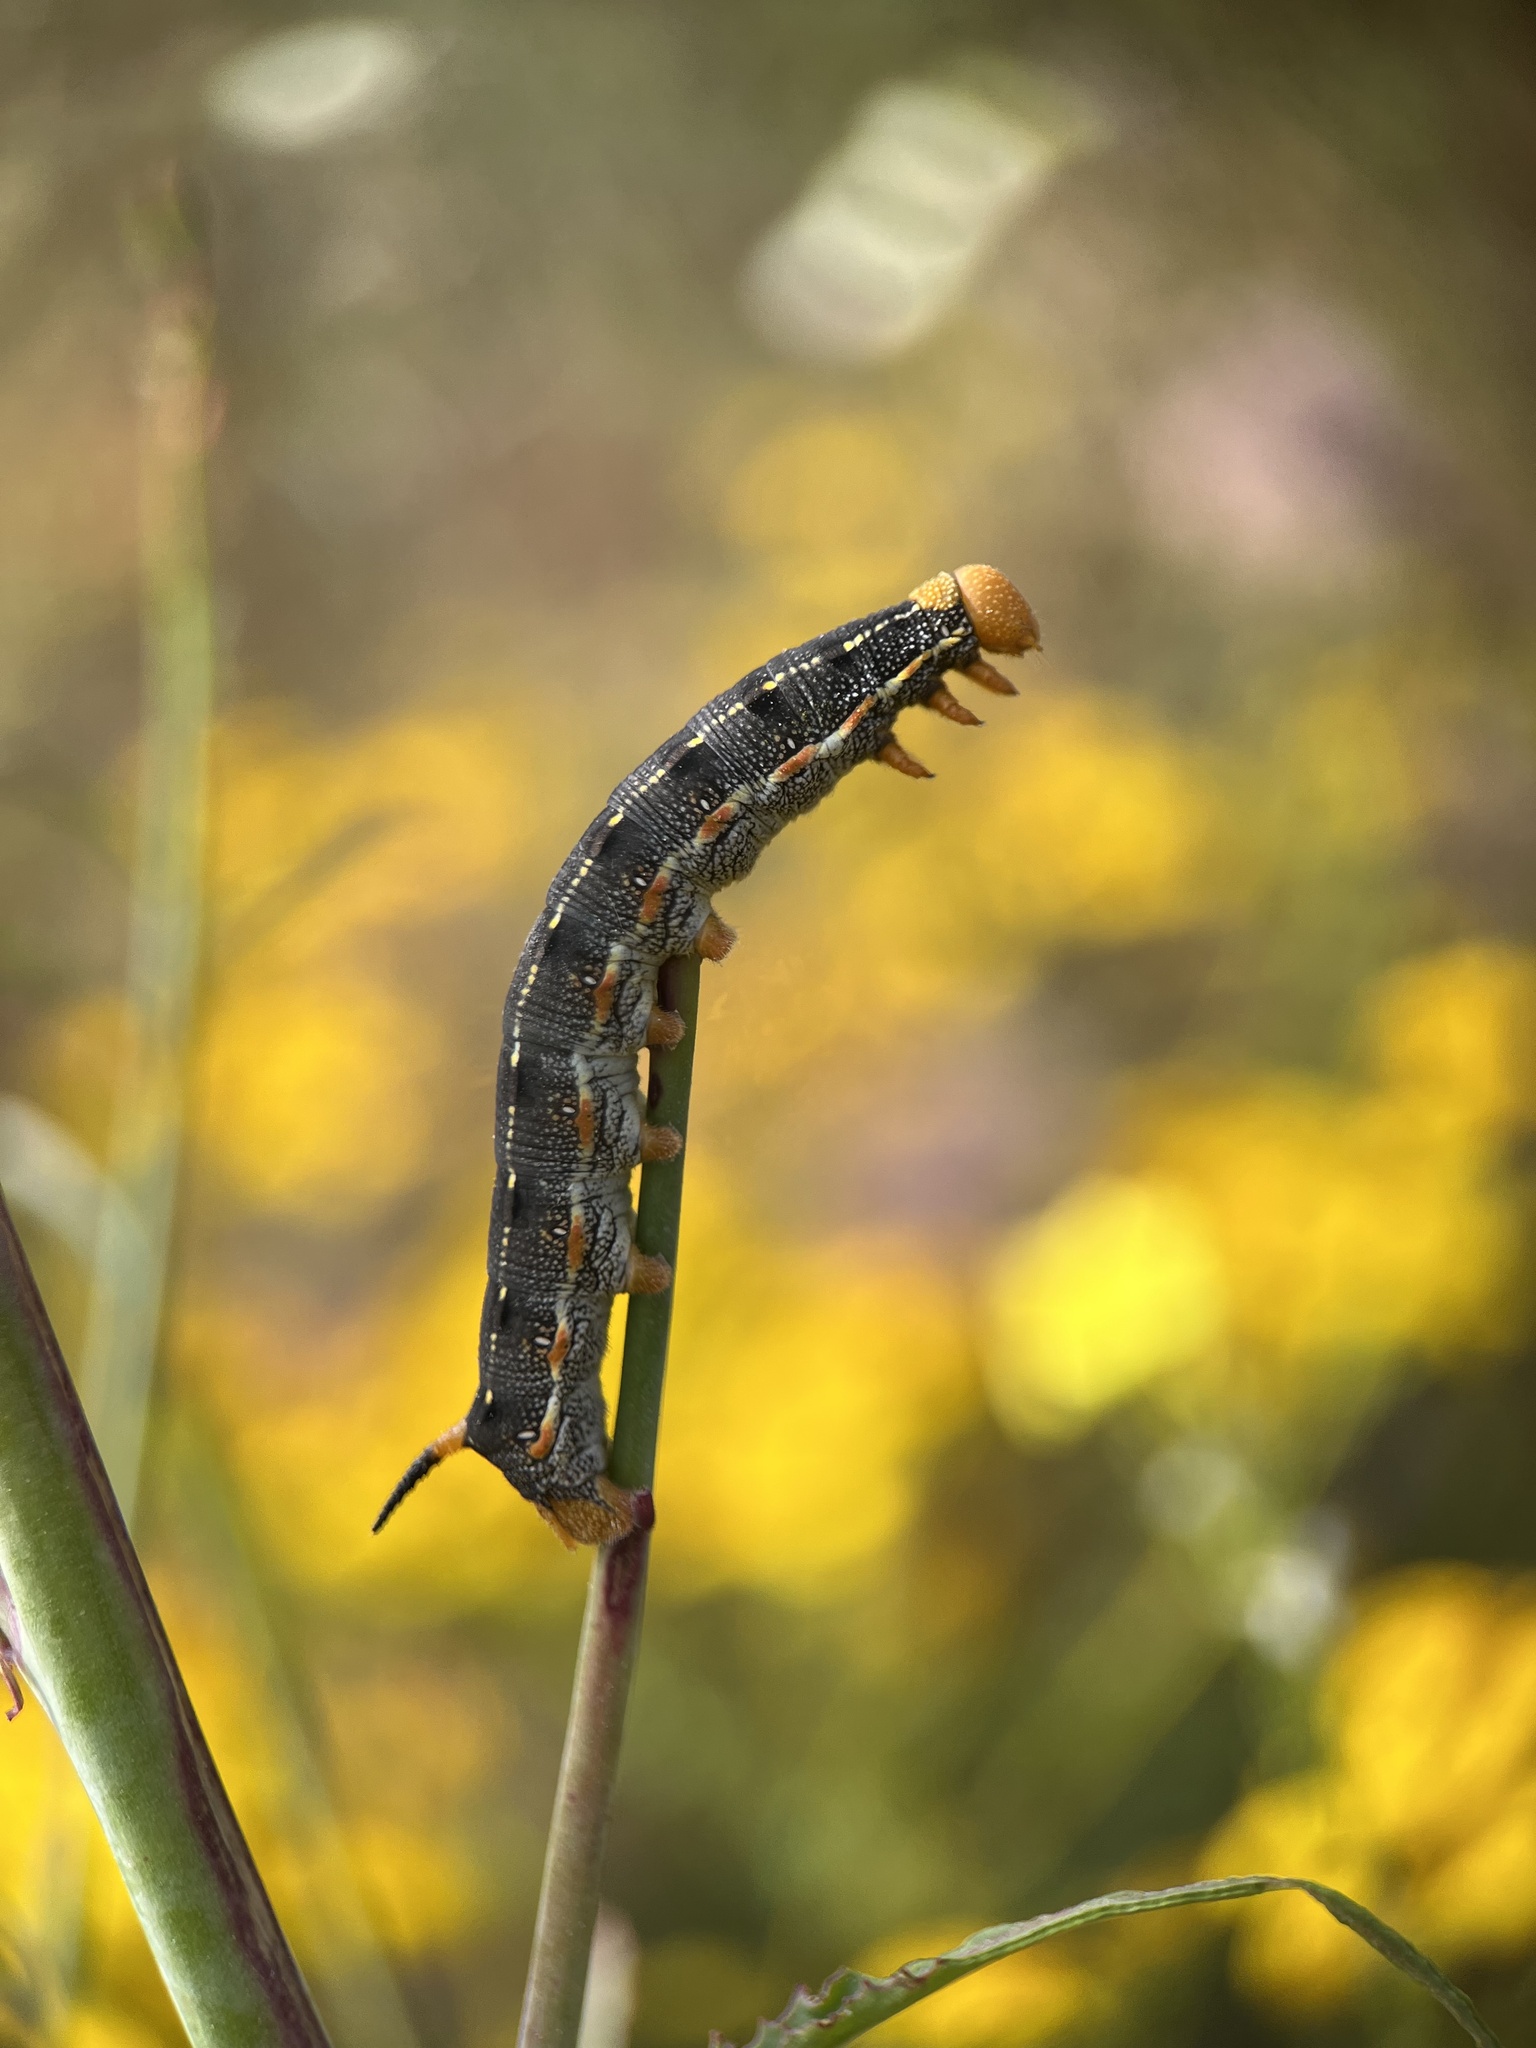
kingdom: Animalia
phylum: Arthropoda
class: Insecta
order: Lepidoptera
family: Sphingidae
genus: Hyles
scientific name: Hyles lineata
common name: White-lined sphinx
